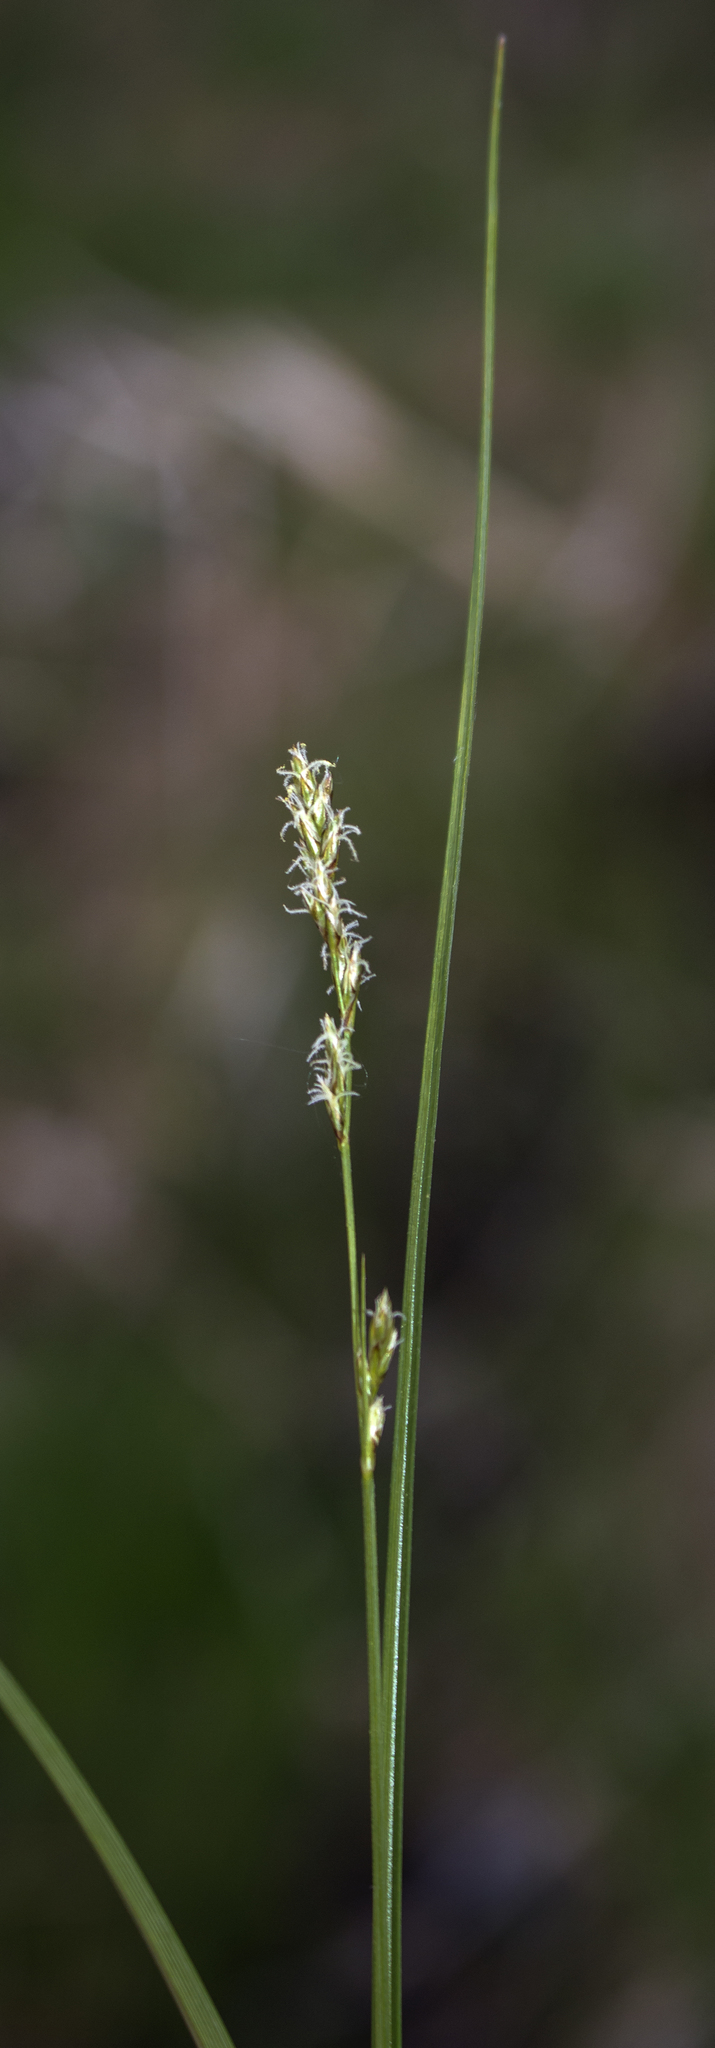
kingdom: Plantae
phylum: Tracheophyta
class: Liliopsida
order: Poales
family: Cyperaceae
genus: Carex
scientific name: Carex bromoides
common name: Brome hummock sedge
